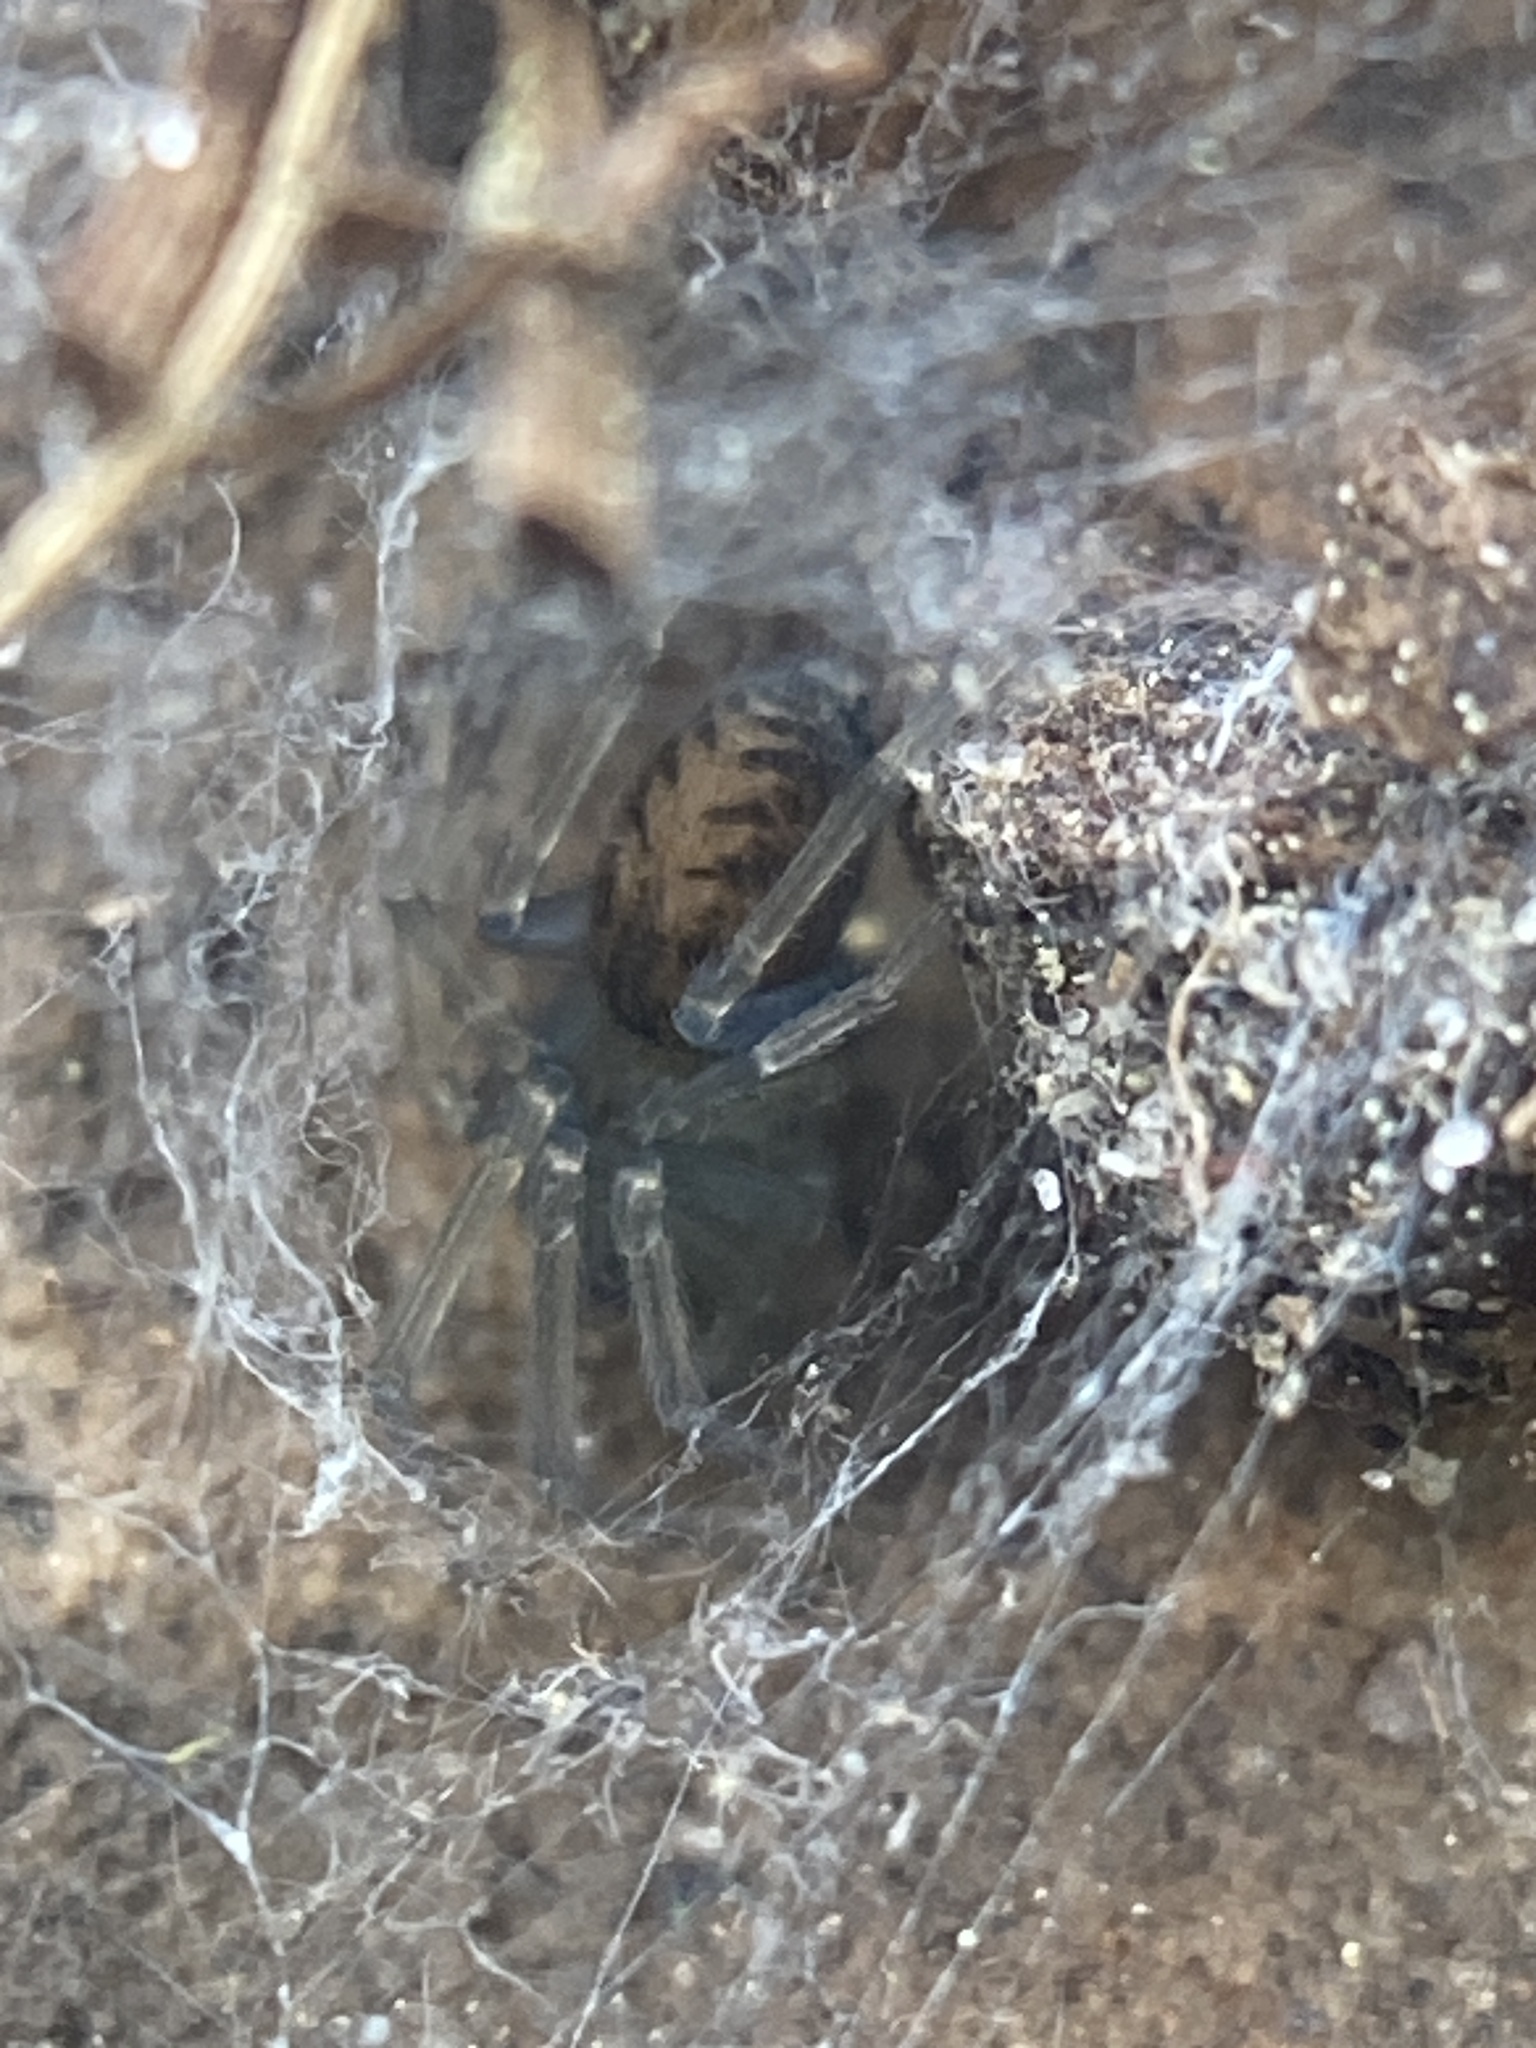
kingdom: Animalia
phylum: Arthropoda
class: Arachnida
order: Araneae
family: Desidae
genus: Metaltella
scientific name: Metaltella simoni
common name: Cribellate spider
